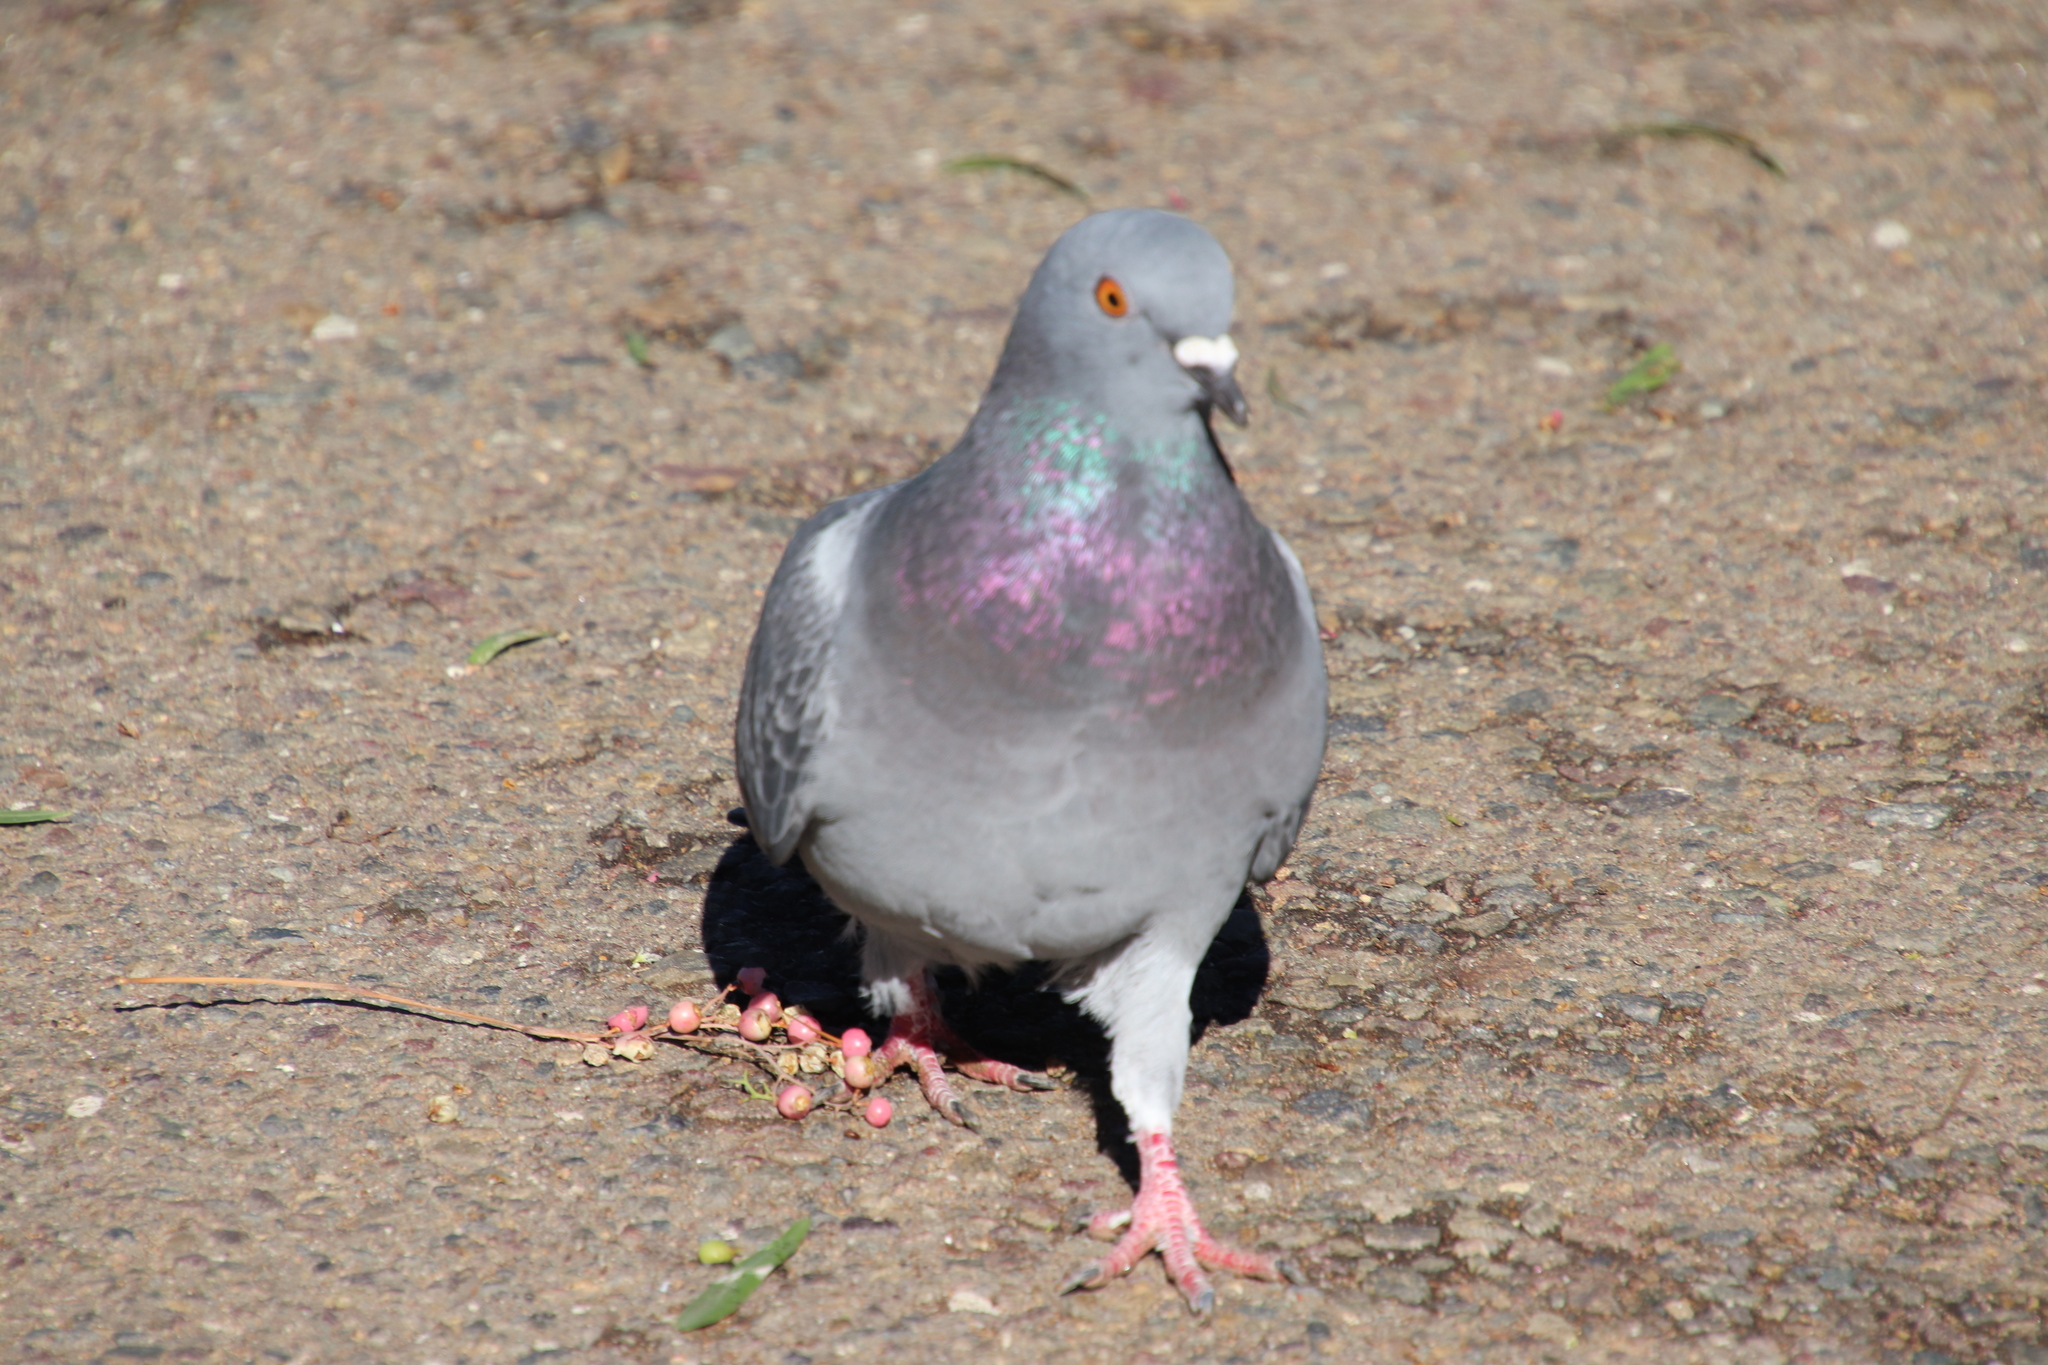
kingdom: Animalia
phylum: Chordata
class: Aves
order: Columbiformes
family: Columbidae
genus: Columba
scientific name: Columba livia
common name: Rock pigeon
